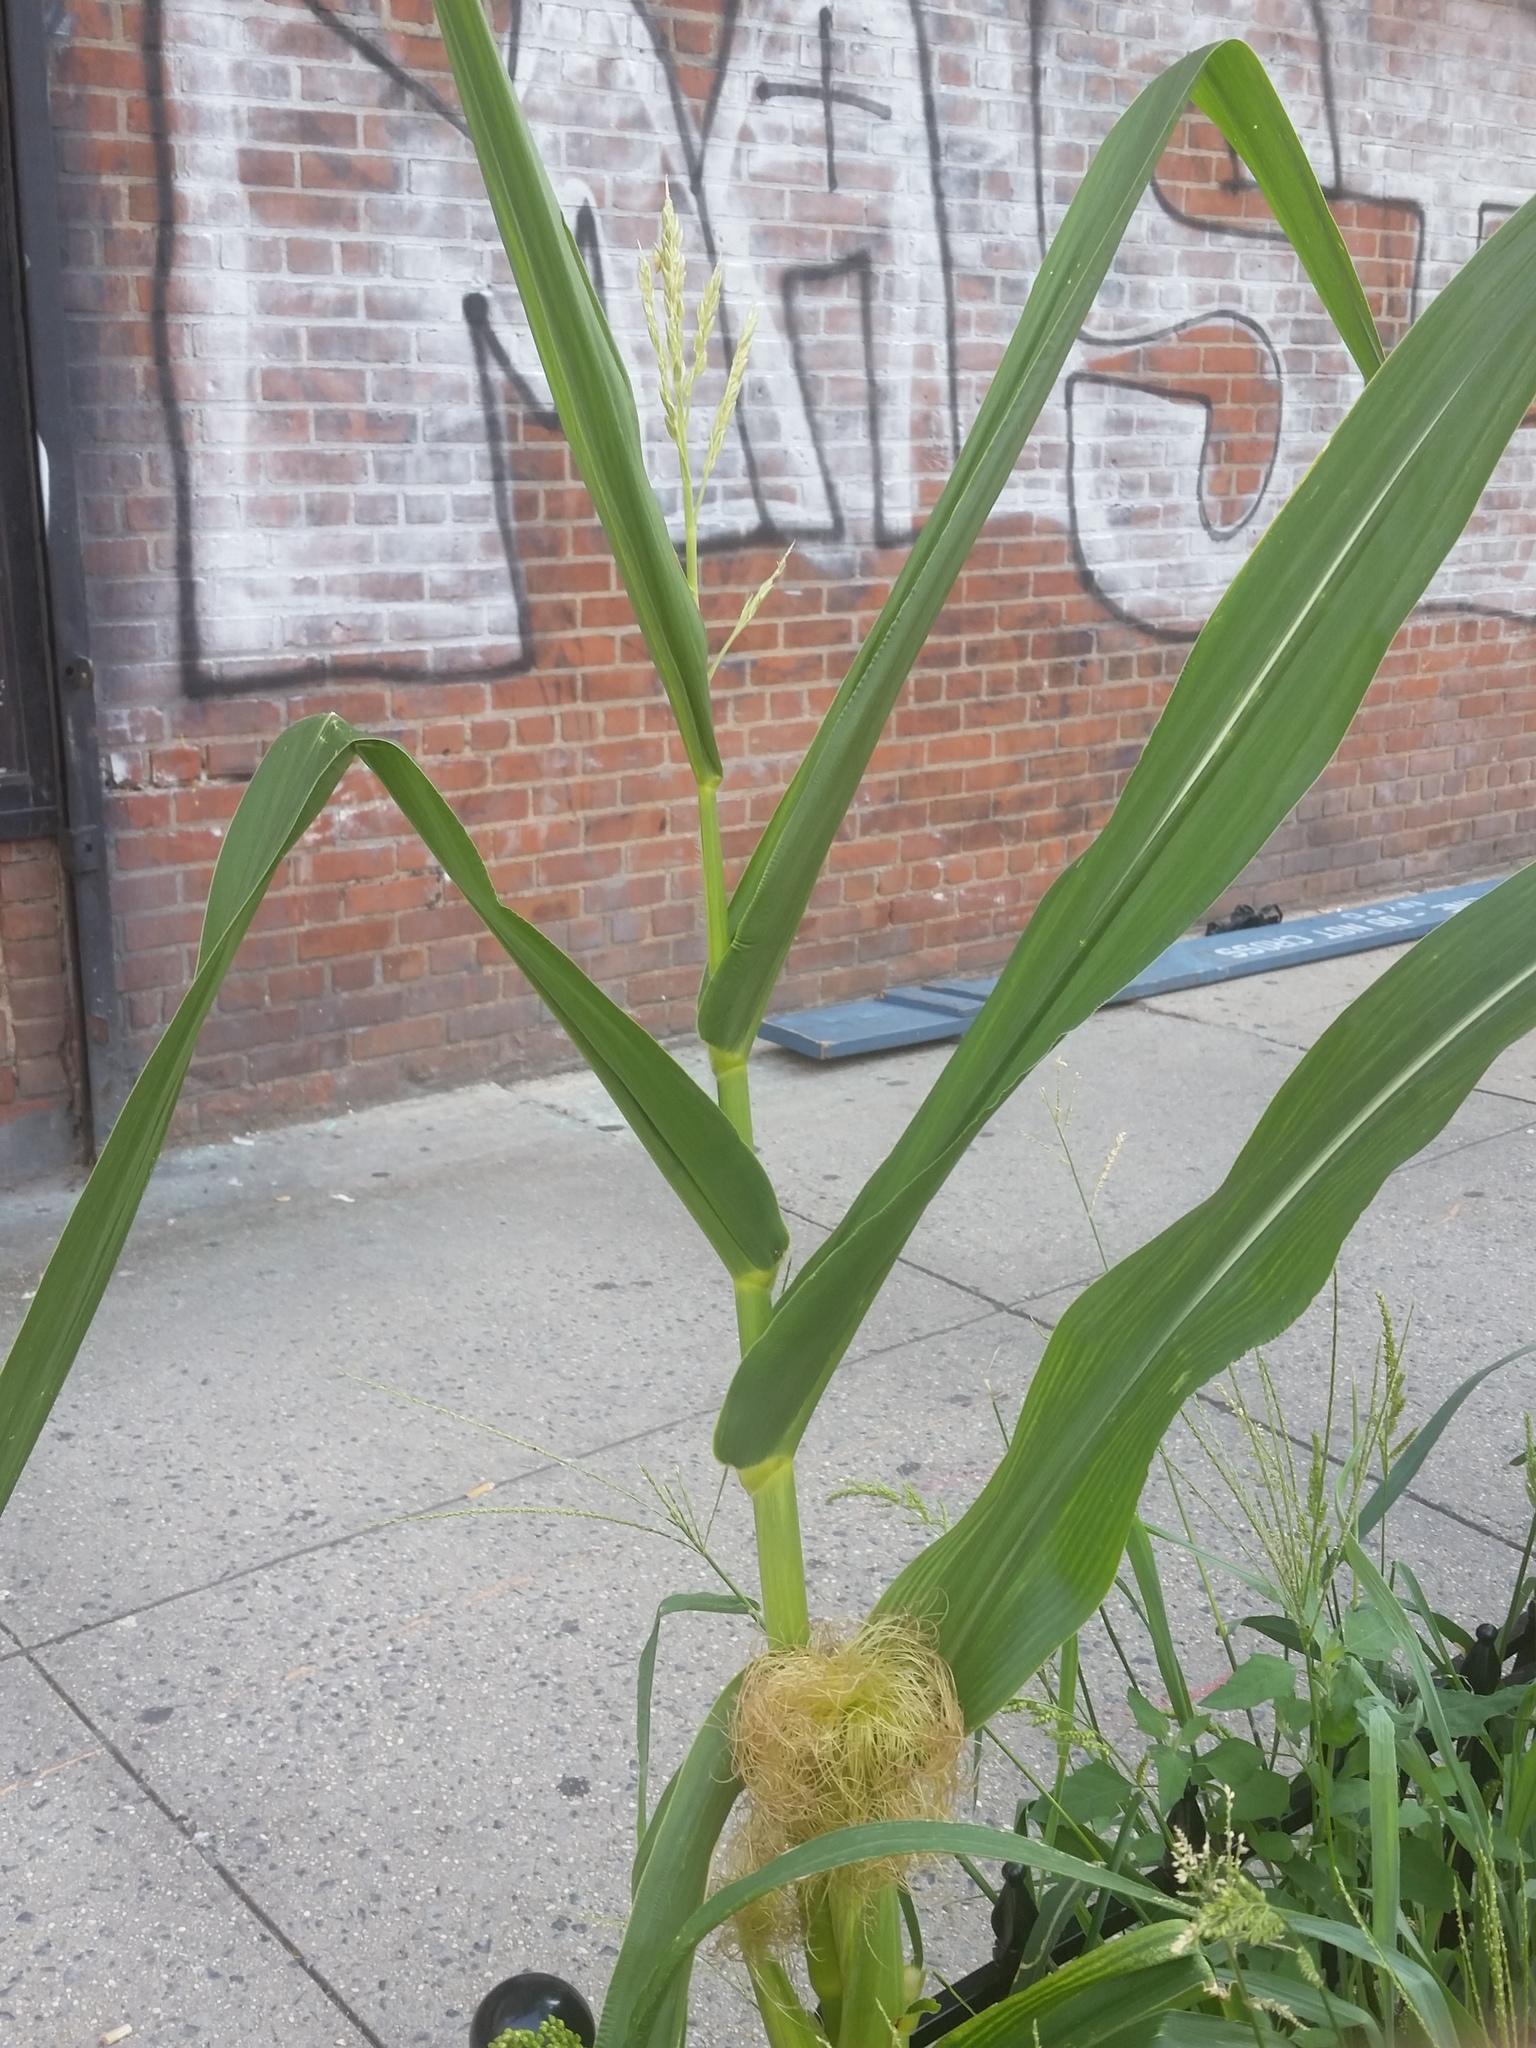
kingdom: Plantae
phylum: Tracheophyta
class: Liliopsida
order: Poales
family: Poaceae
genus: Zea
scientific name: Zea mays
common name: Maize
